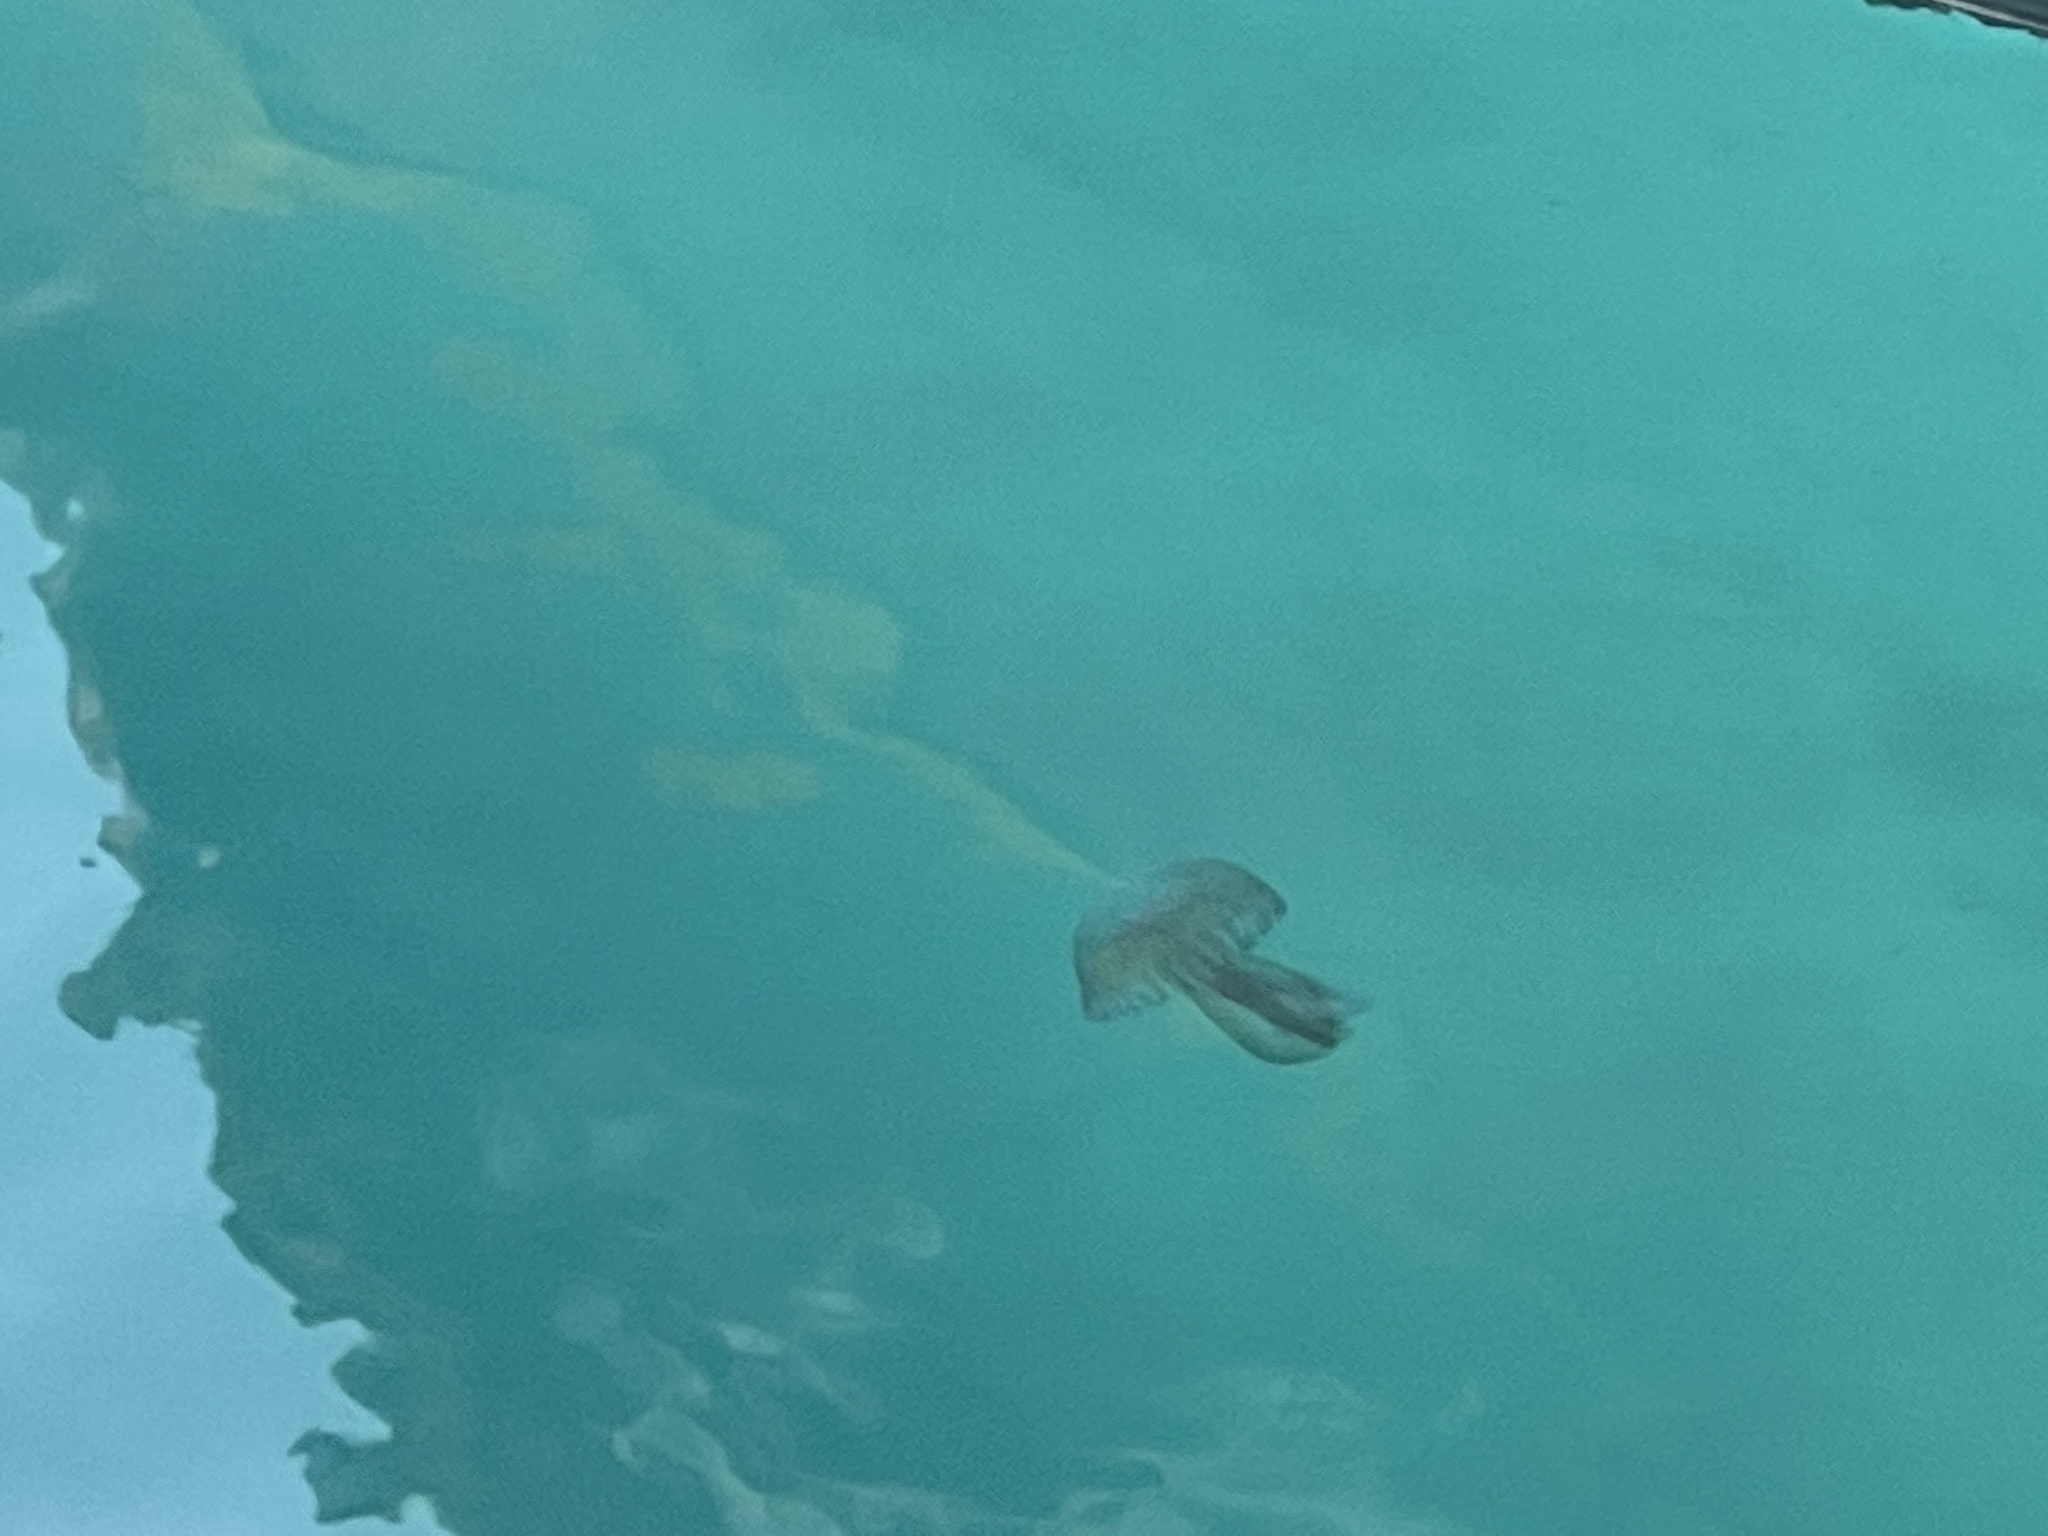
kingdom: Animalia
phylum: Cnidaria
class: Scyphozoa
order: Semaeostomeae
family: Pelagiidae
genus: Pelagia
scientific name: Pelagia noctiluca
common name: Mauve stinger
